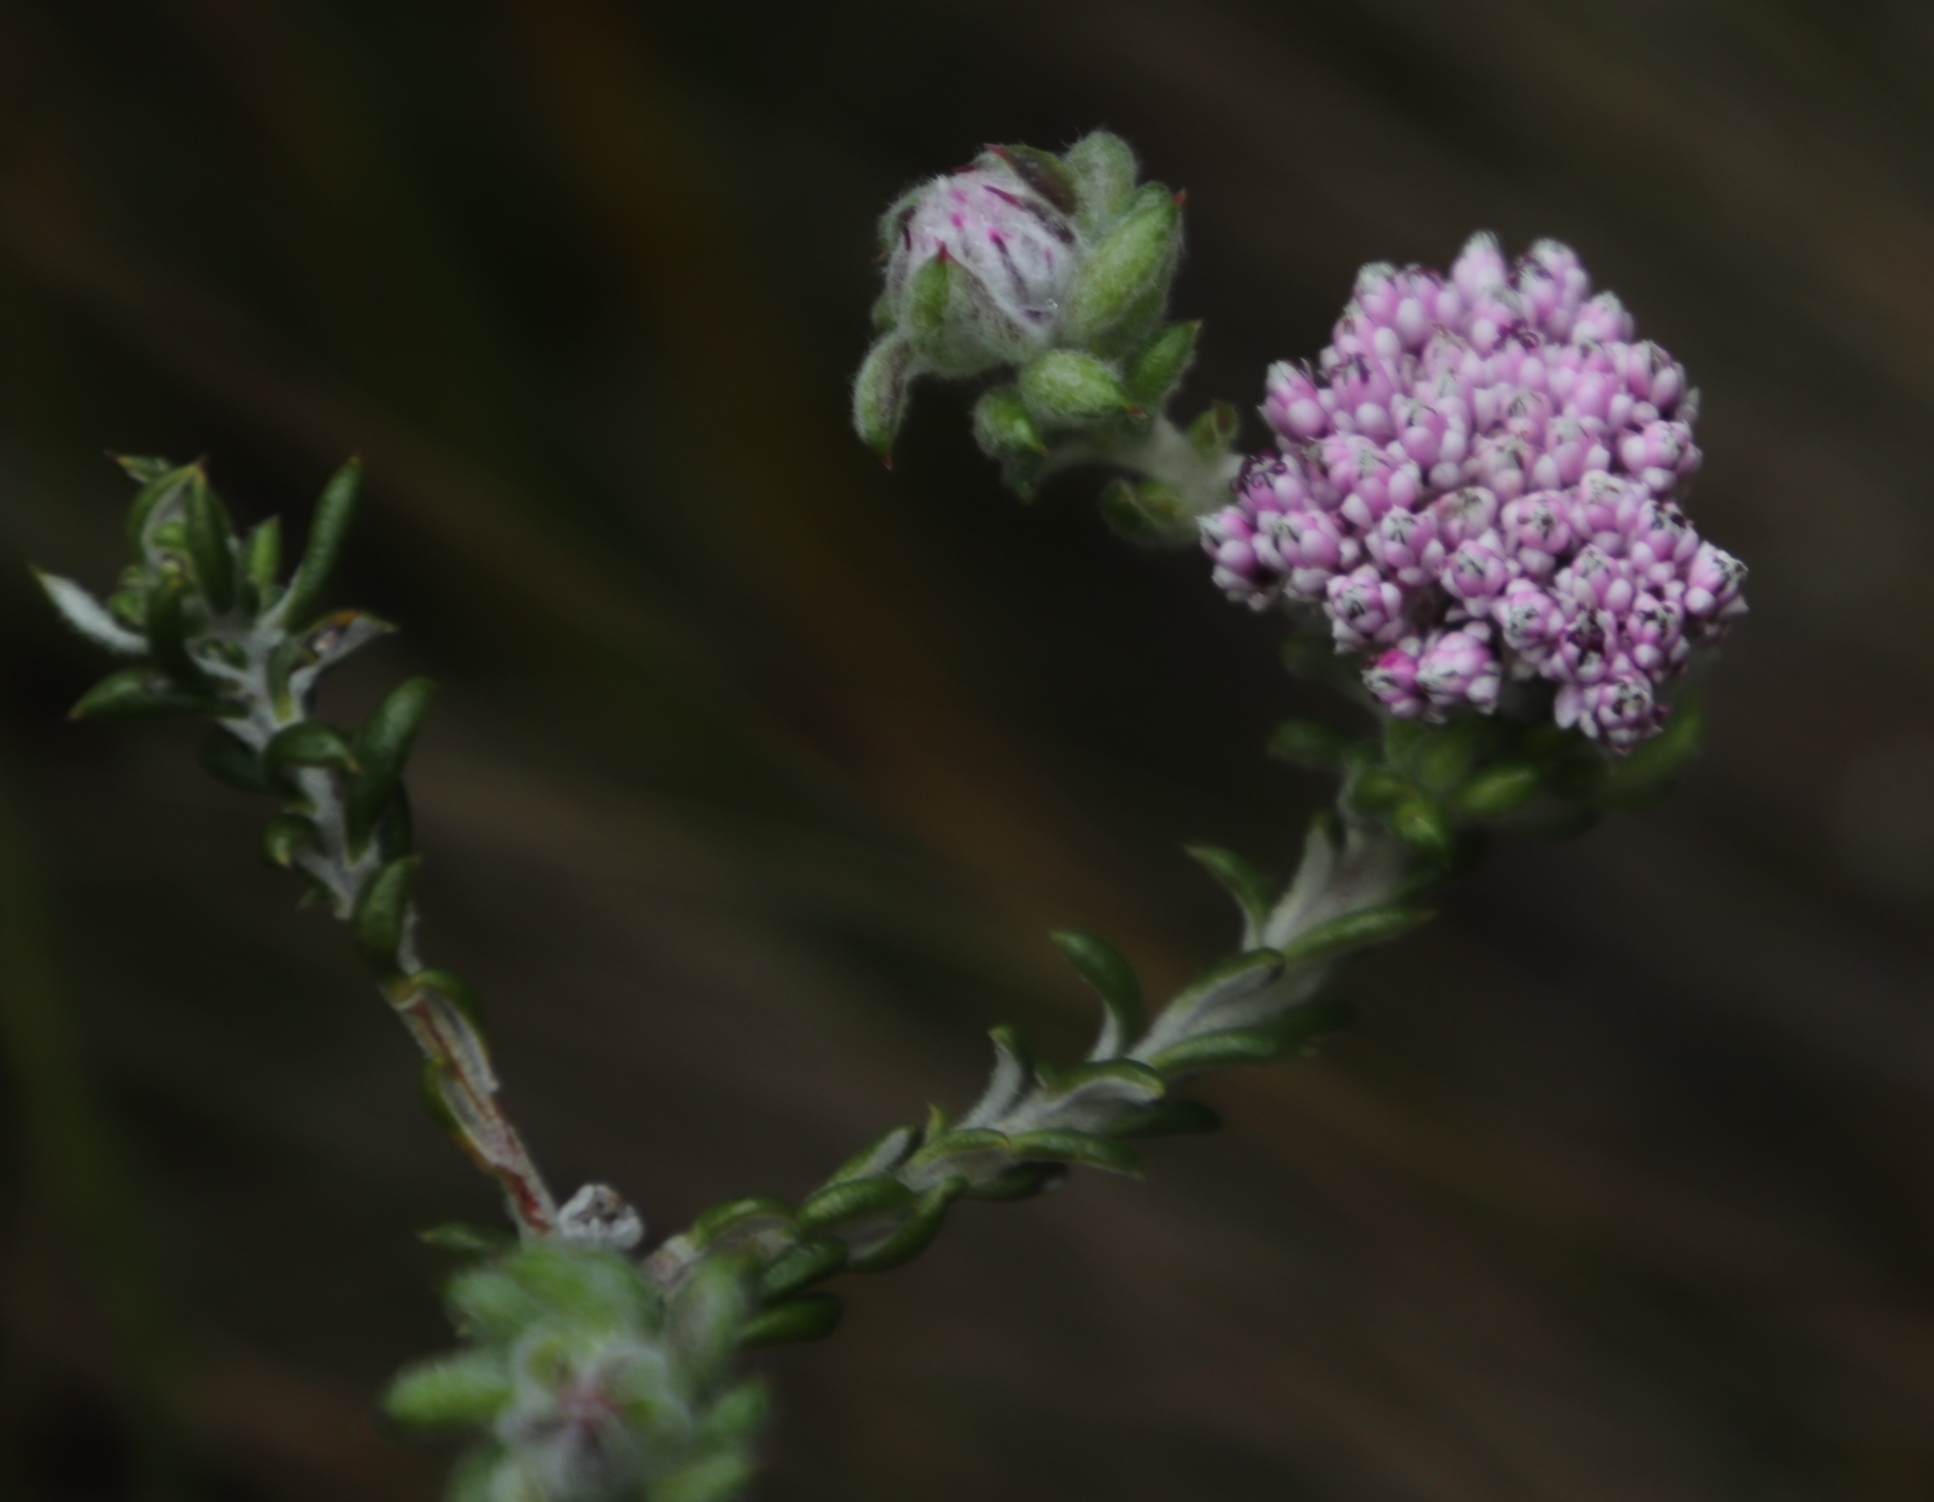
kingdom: Plantae
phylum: Tracheophyta
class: Magnoliopsida
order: Asterales
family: Asteraceae
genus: Metalasia
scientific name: Metalasia erubescens
